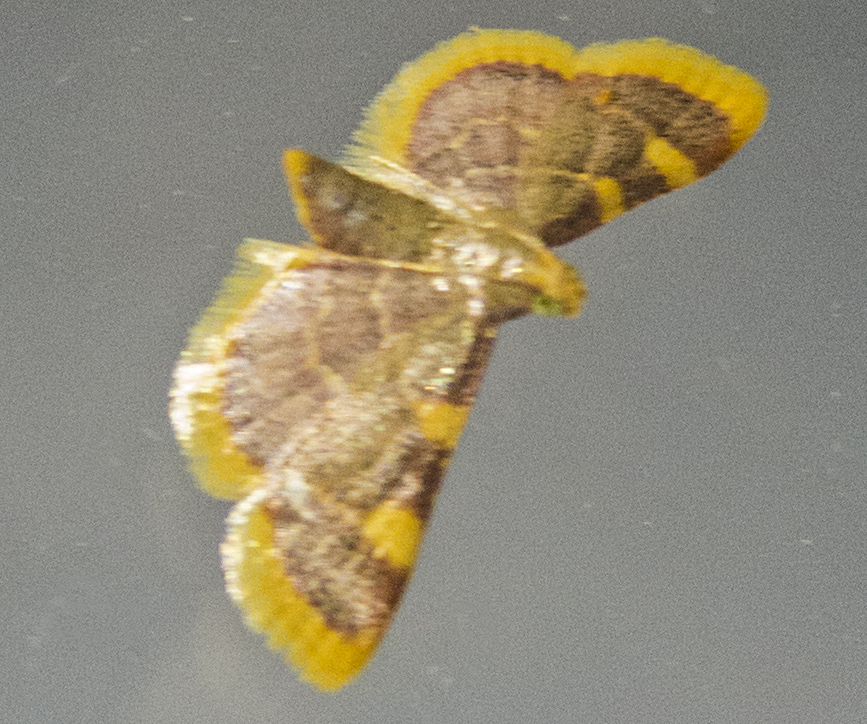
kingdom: Animalia
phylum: Arthropoda
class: Insecta
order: Lepidoptera
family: Pyralidae
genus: Hypsopygia
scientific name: Hypsopygia costalis
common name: Gold triangle
